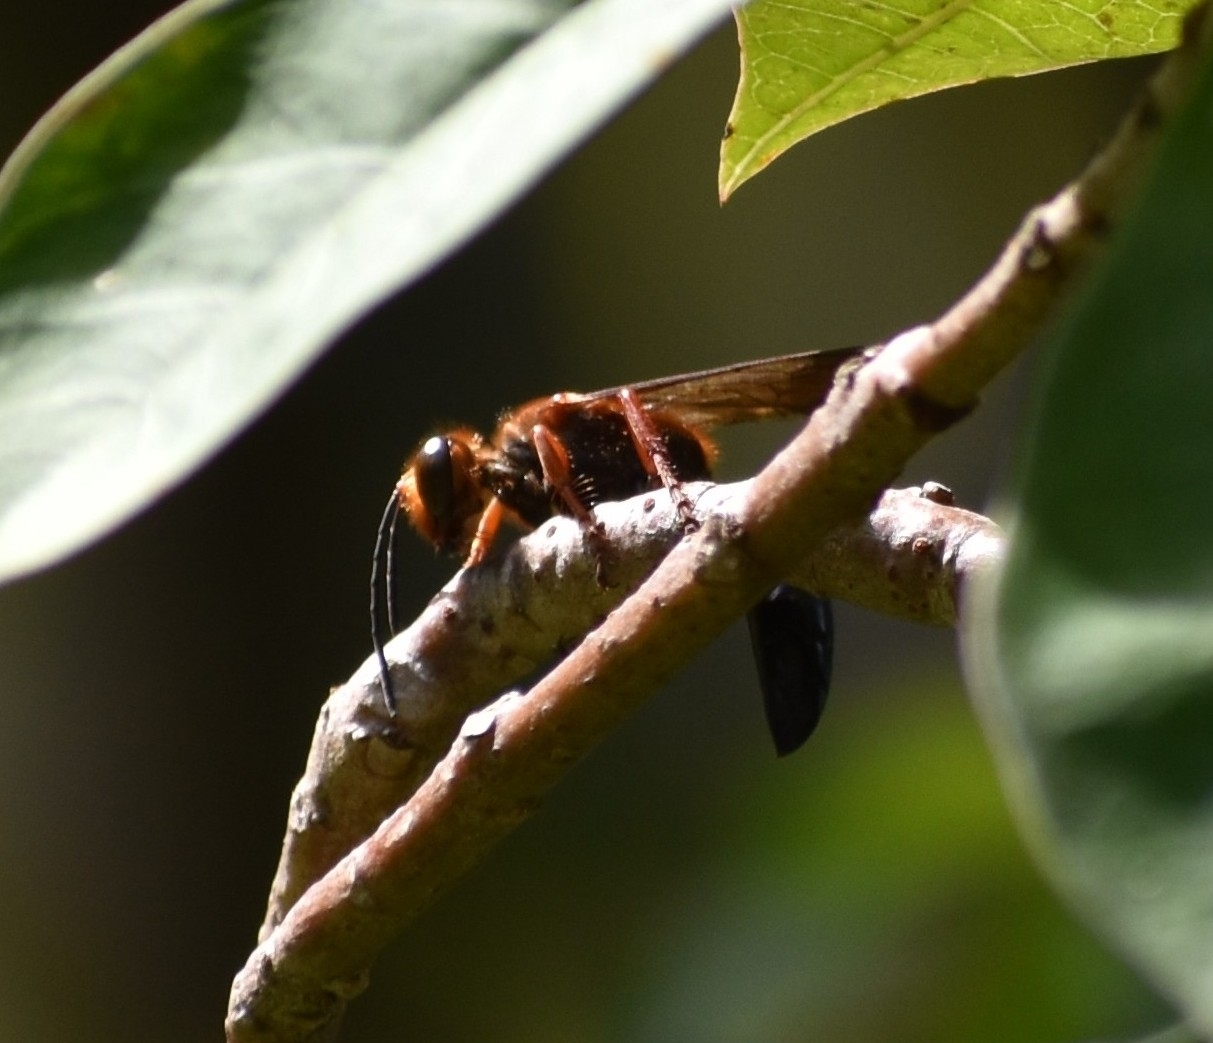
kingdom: Animalia
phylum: Arthropoda
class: Insecta
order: Hymenoptera
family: Sphecidae
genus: Sphex
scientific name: Sphex sericeus
